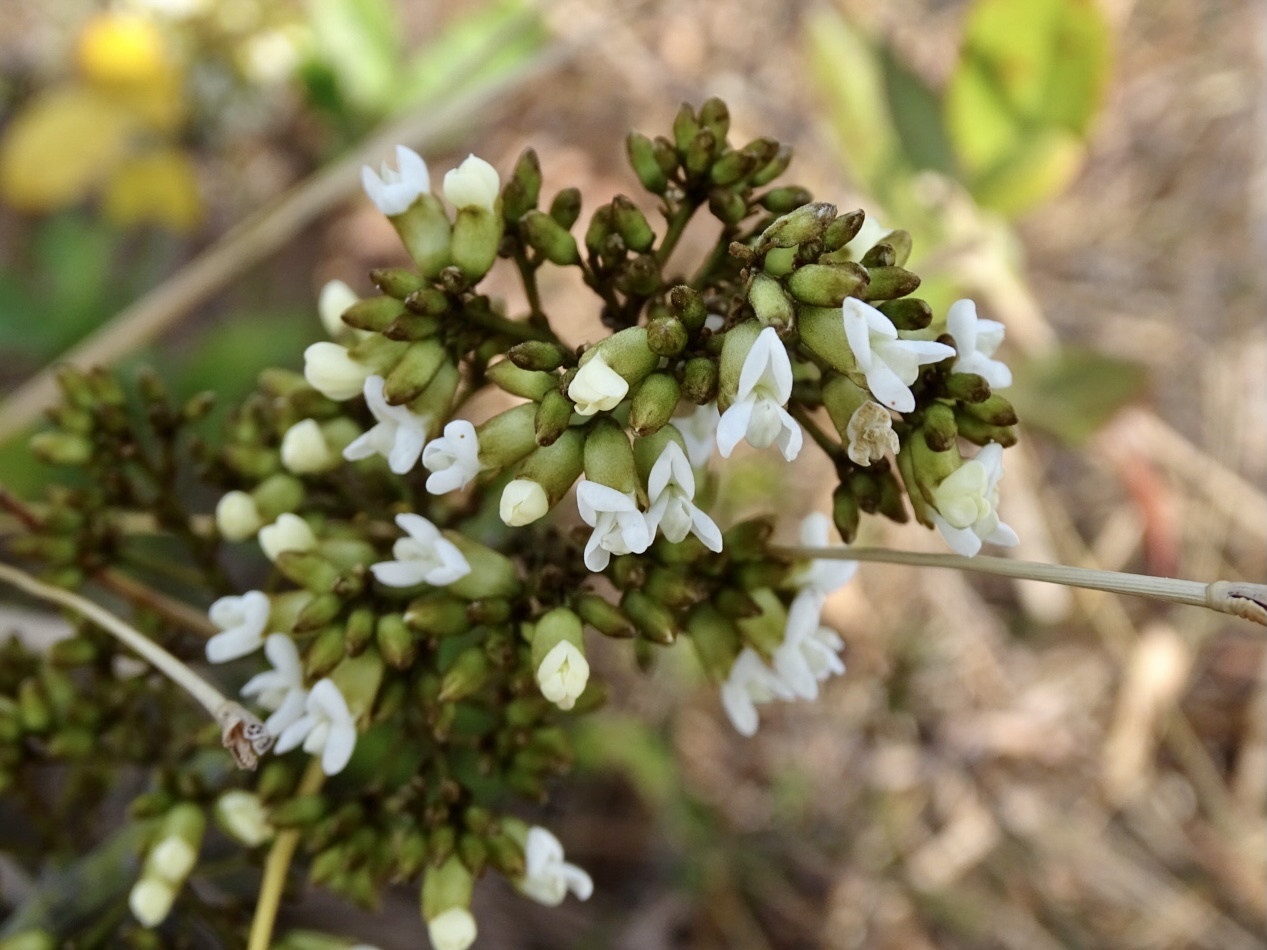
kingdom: Plantae
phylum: Tracheophyta
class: Magnoliopsida
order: Fabales
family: Fabaceae
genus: Dalbergia
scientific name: Dalbergia benthamii
